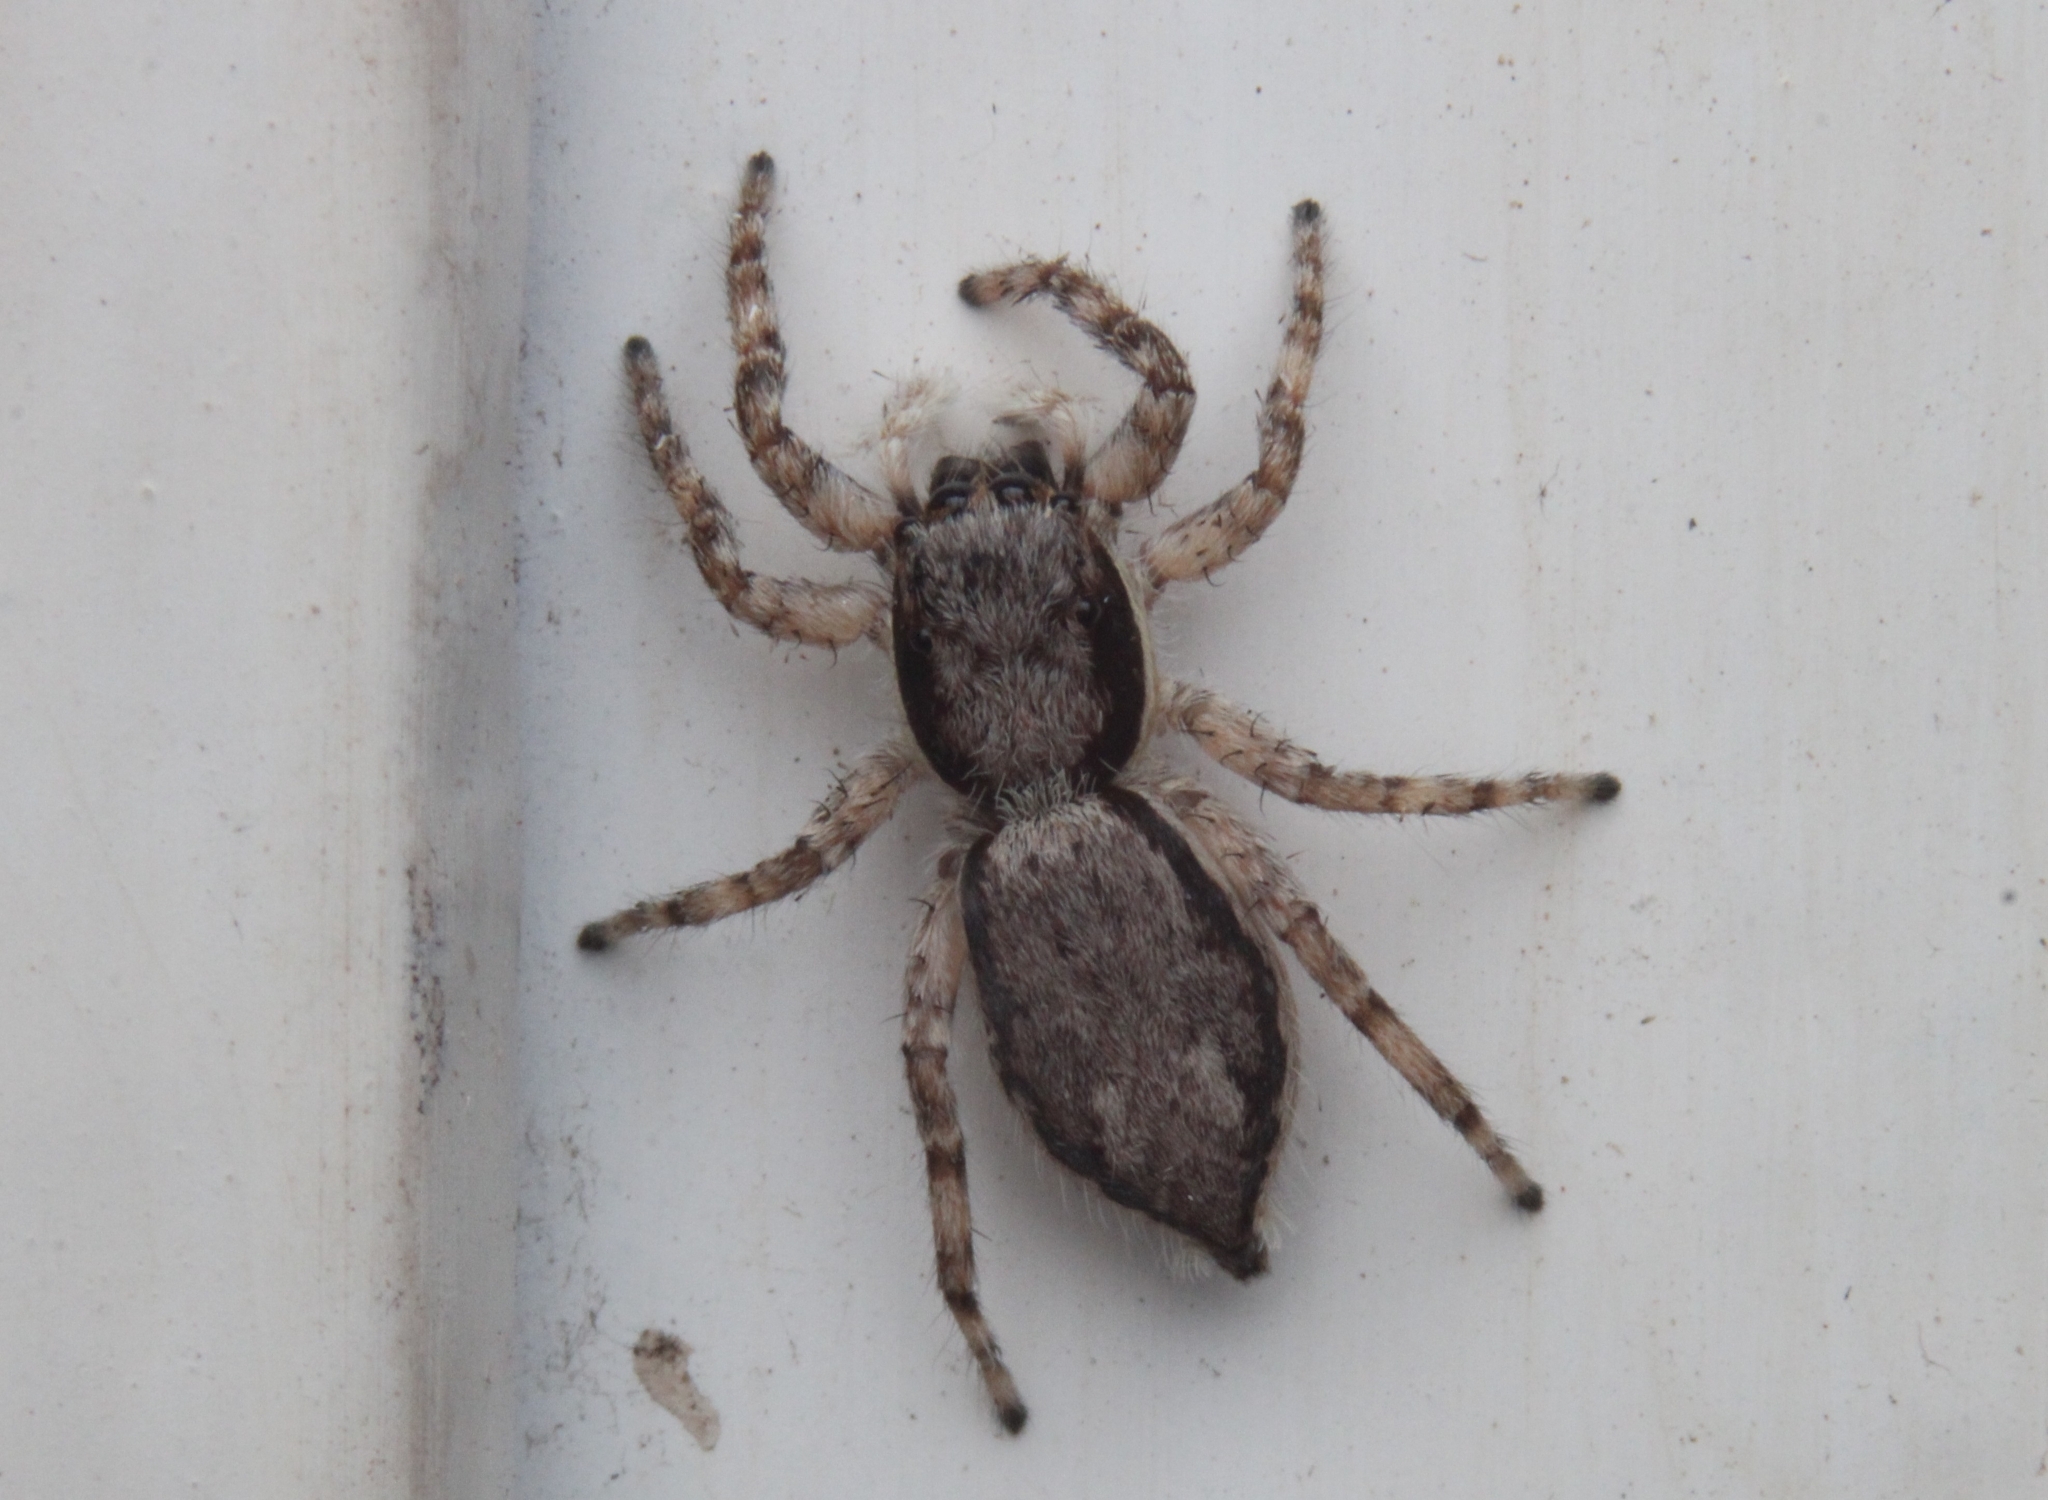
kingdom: Animalia
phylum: Arthropoda
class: Arachnida
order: Araneae
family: Salticidae
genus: Menemerus
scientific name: Menemerus bivittatus
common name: Gray wall jumper
